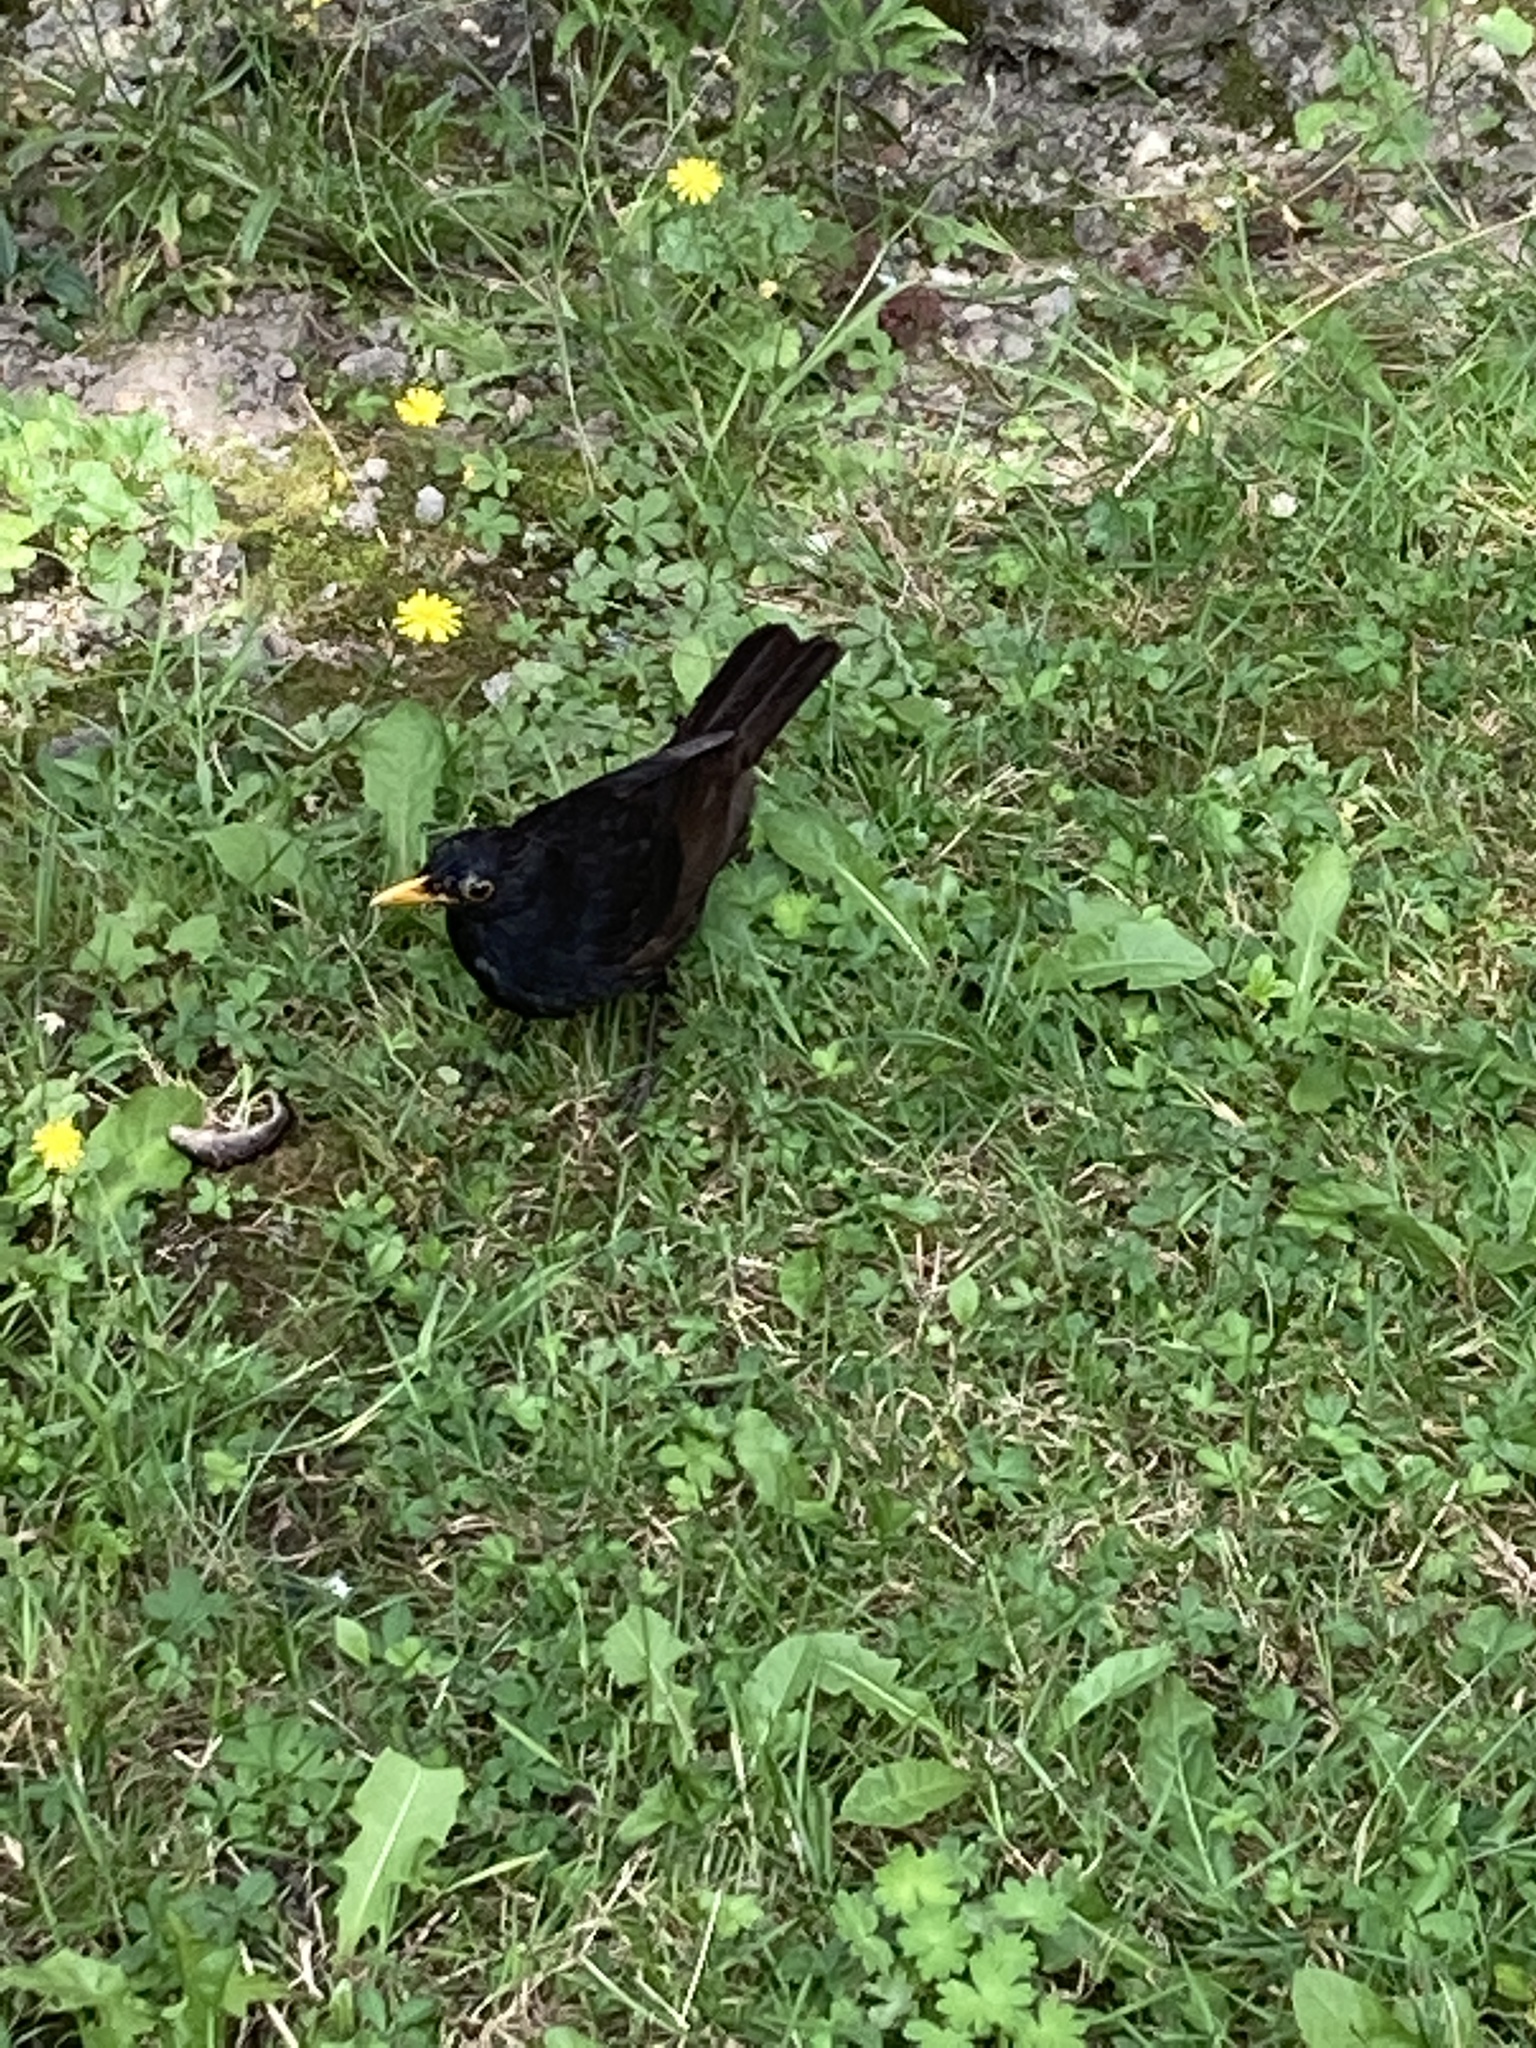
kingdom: Animalia
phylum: Chordata
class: Aves
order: Passeriformes
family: Turdidae
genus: Turdus
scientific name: Turdus merula
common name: Common blackbird
